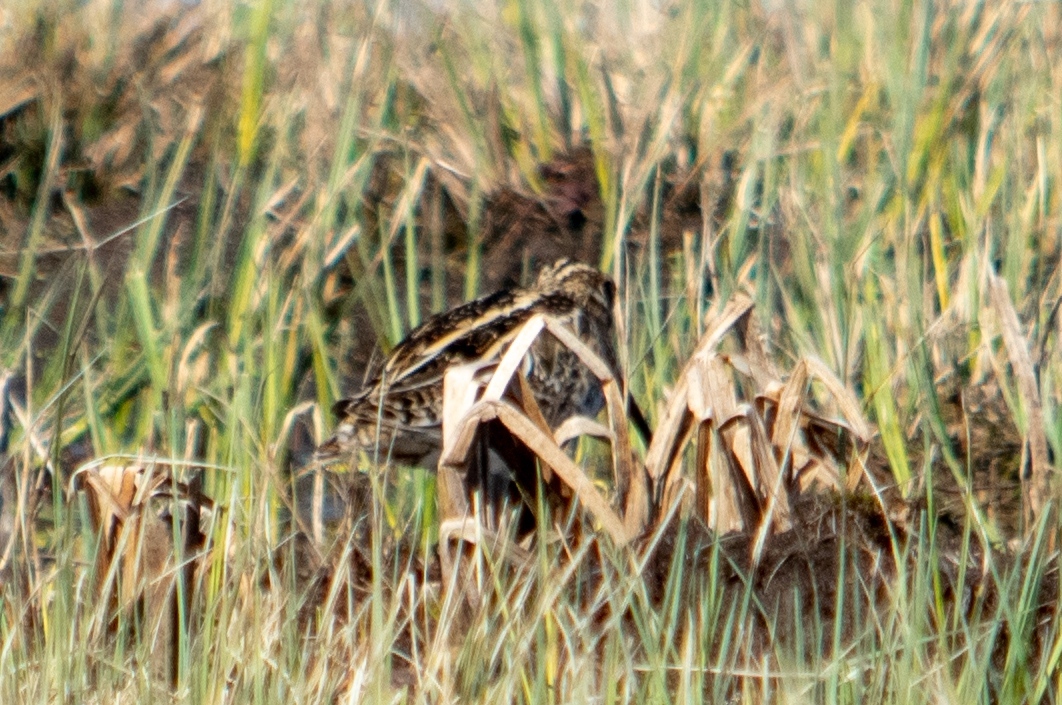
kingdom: Animalia
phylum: Chordata
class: Aves
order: Charadriiformes
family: Scolopacidae
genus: Gallinago
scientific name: Gallinago gallinago
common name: Common snipe
